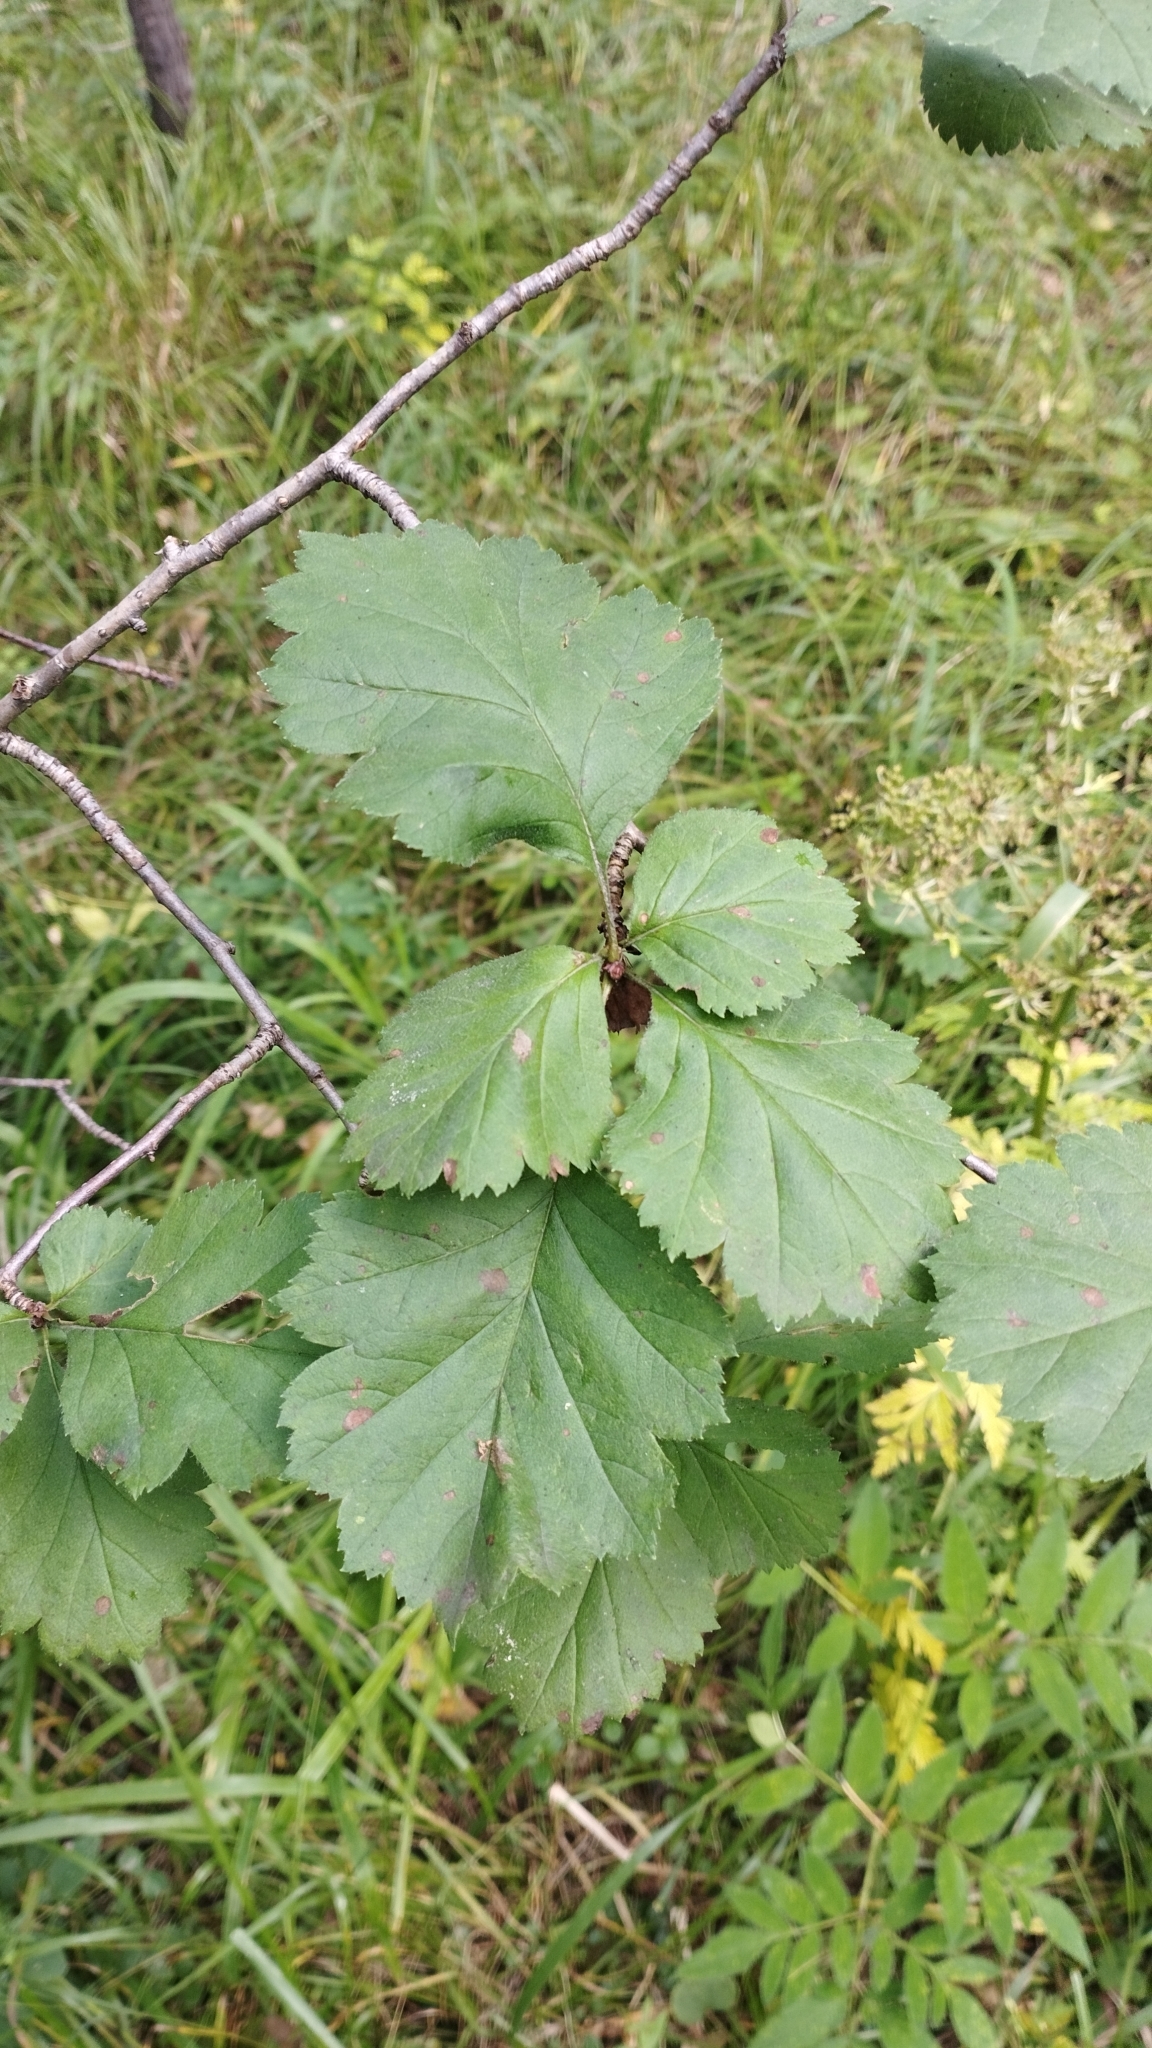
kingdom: Plantae
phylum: Tracheophyta
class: Magnoliopsida
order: Rosales
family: Rosaceae
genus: Crataegus
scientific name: Crataegus sanguinea
